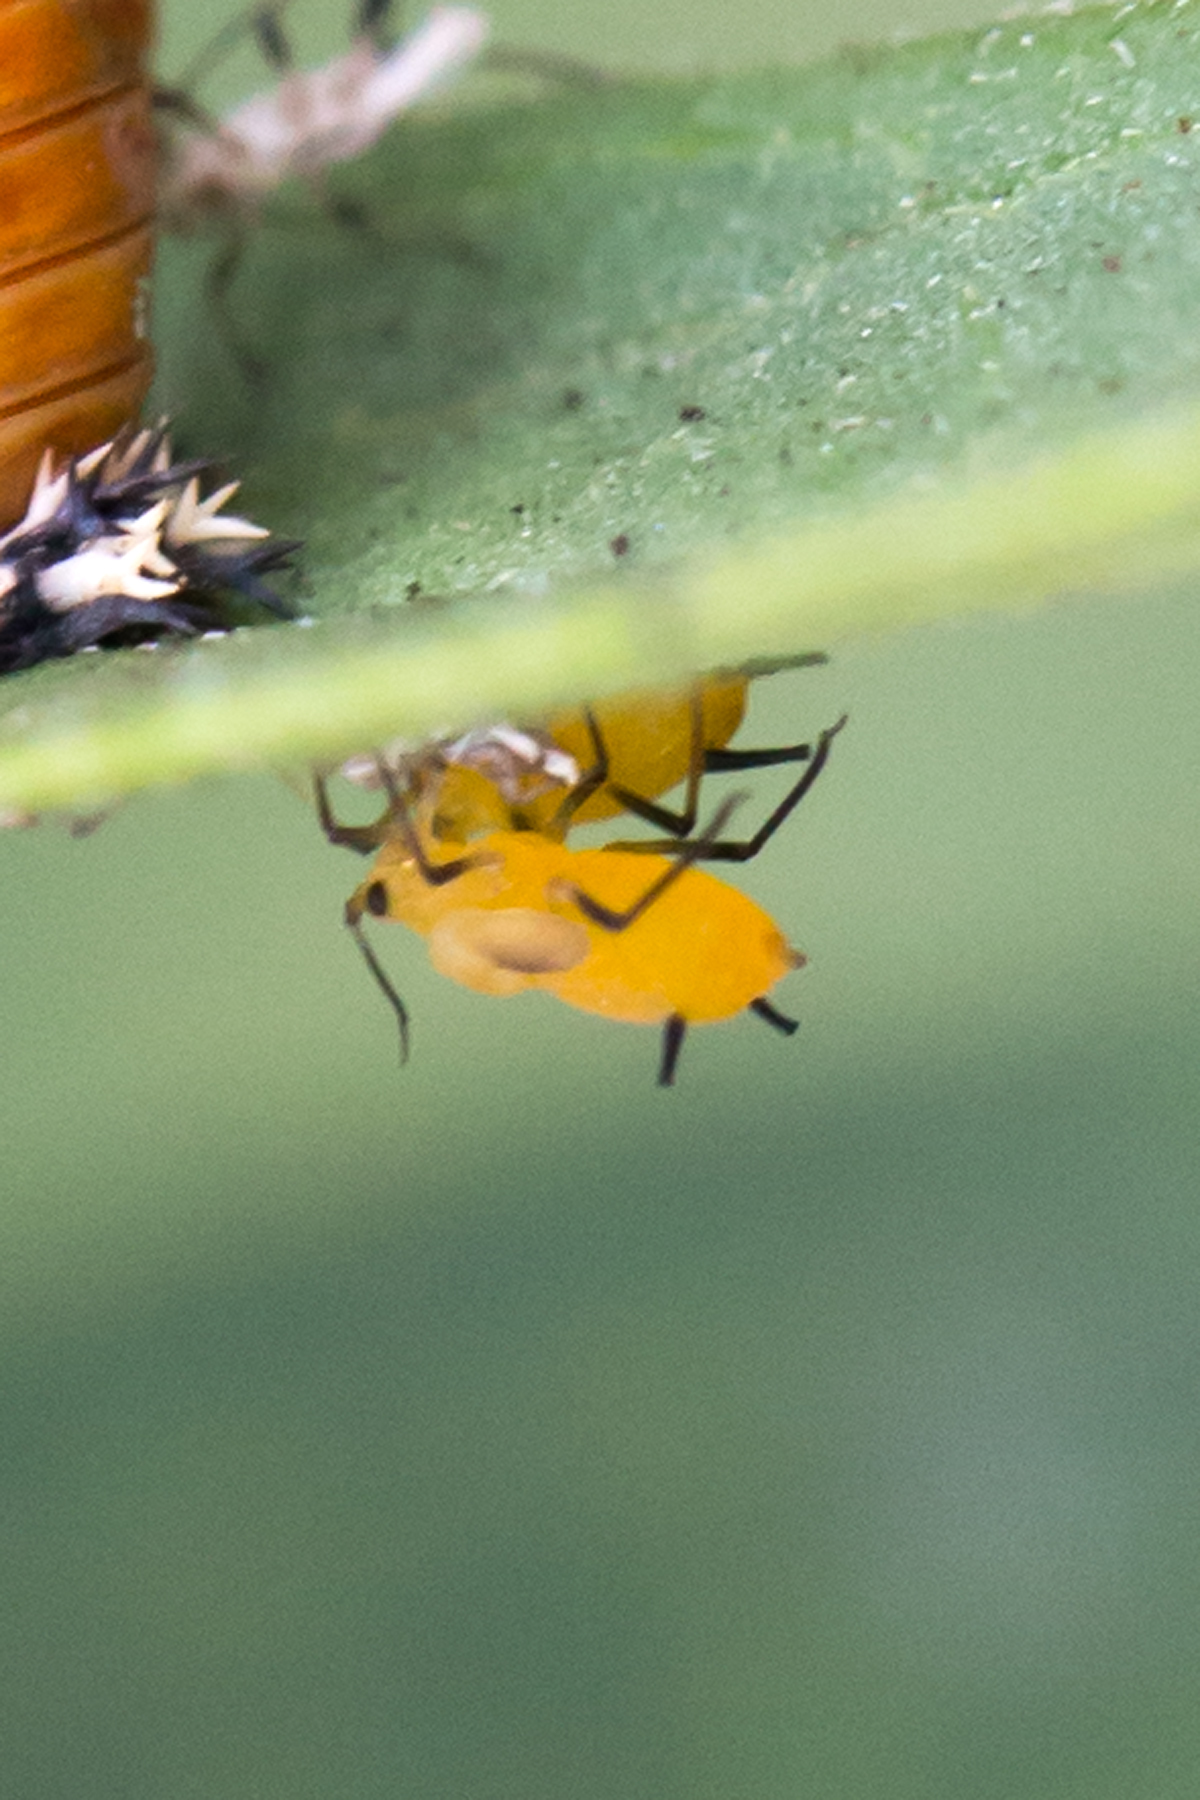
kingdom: Animalia
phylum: Arthropoda
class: Insecta
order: Hemiptera
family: Aphididae
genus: Aphis
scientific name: Aphis nerii
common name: Oleander aphid
